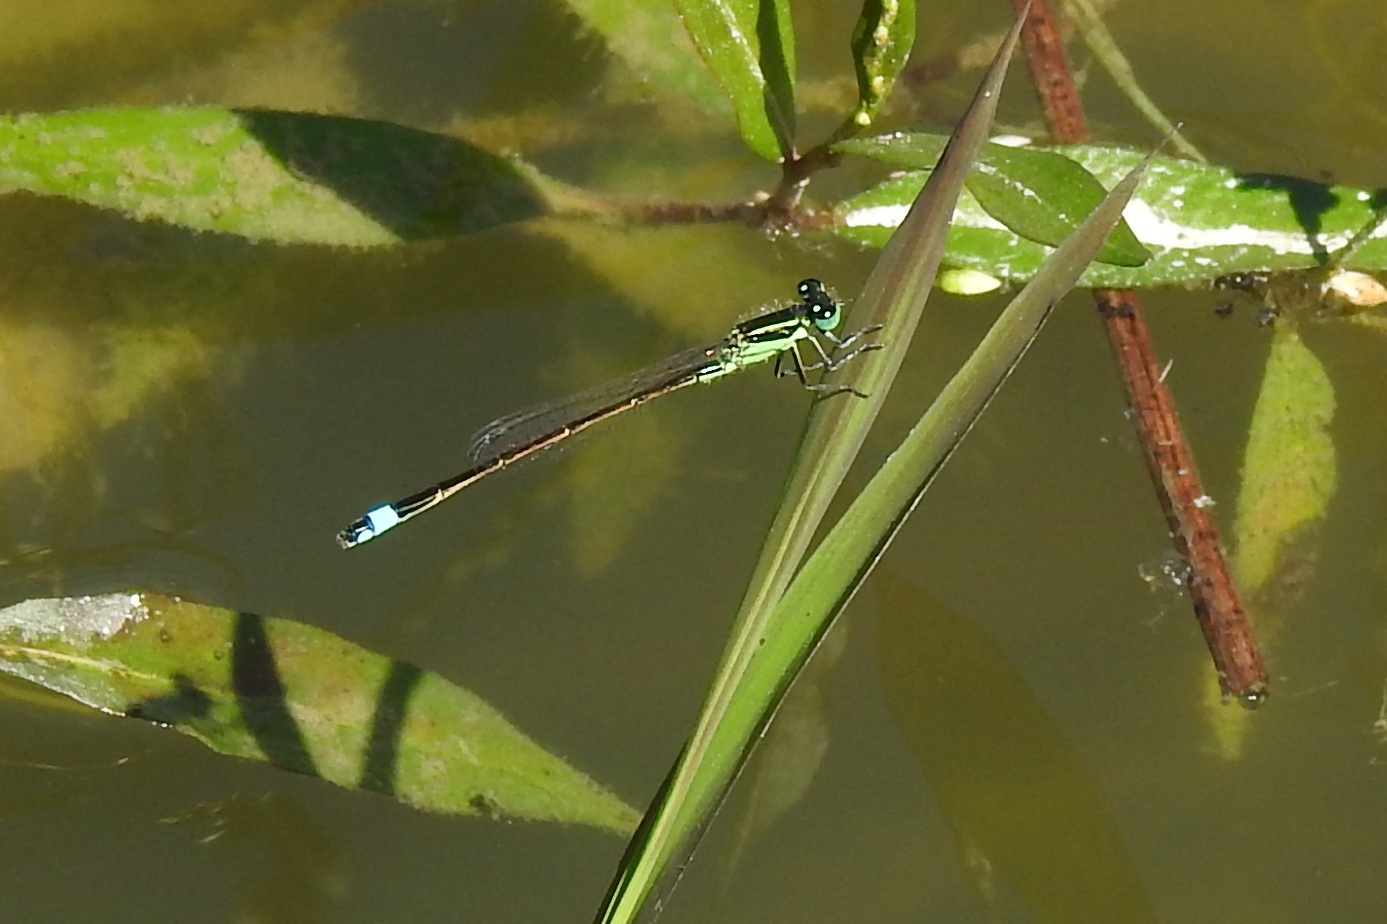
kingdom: Animalia
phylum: Arthropoda
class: Insecta
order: Odonata
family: Coenagrionidae
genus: Ischnura
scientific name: Ischnura ramburii
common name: Rambur's forktail
